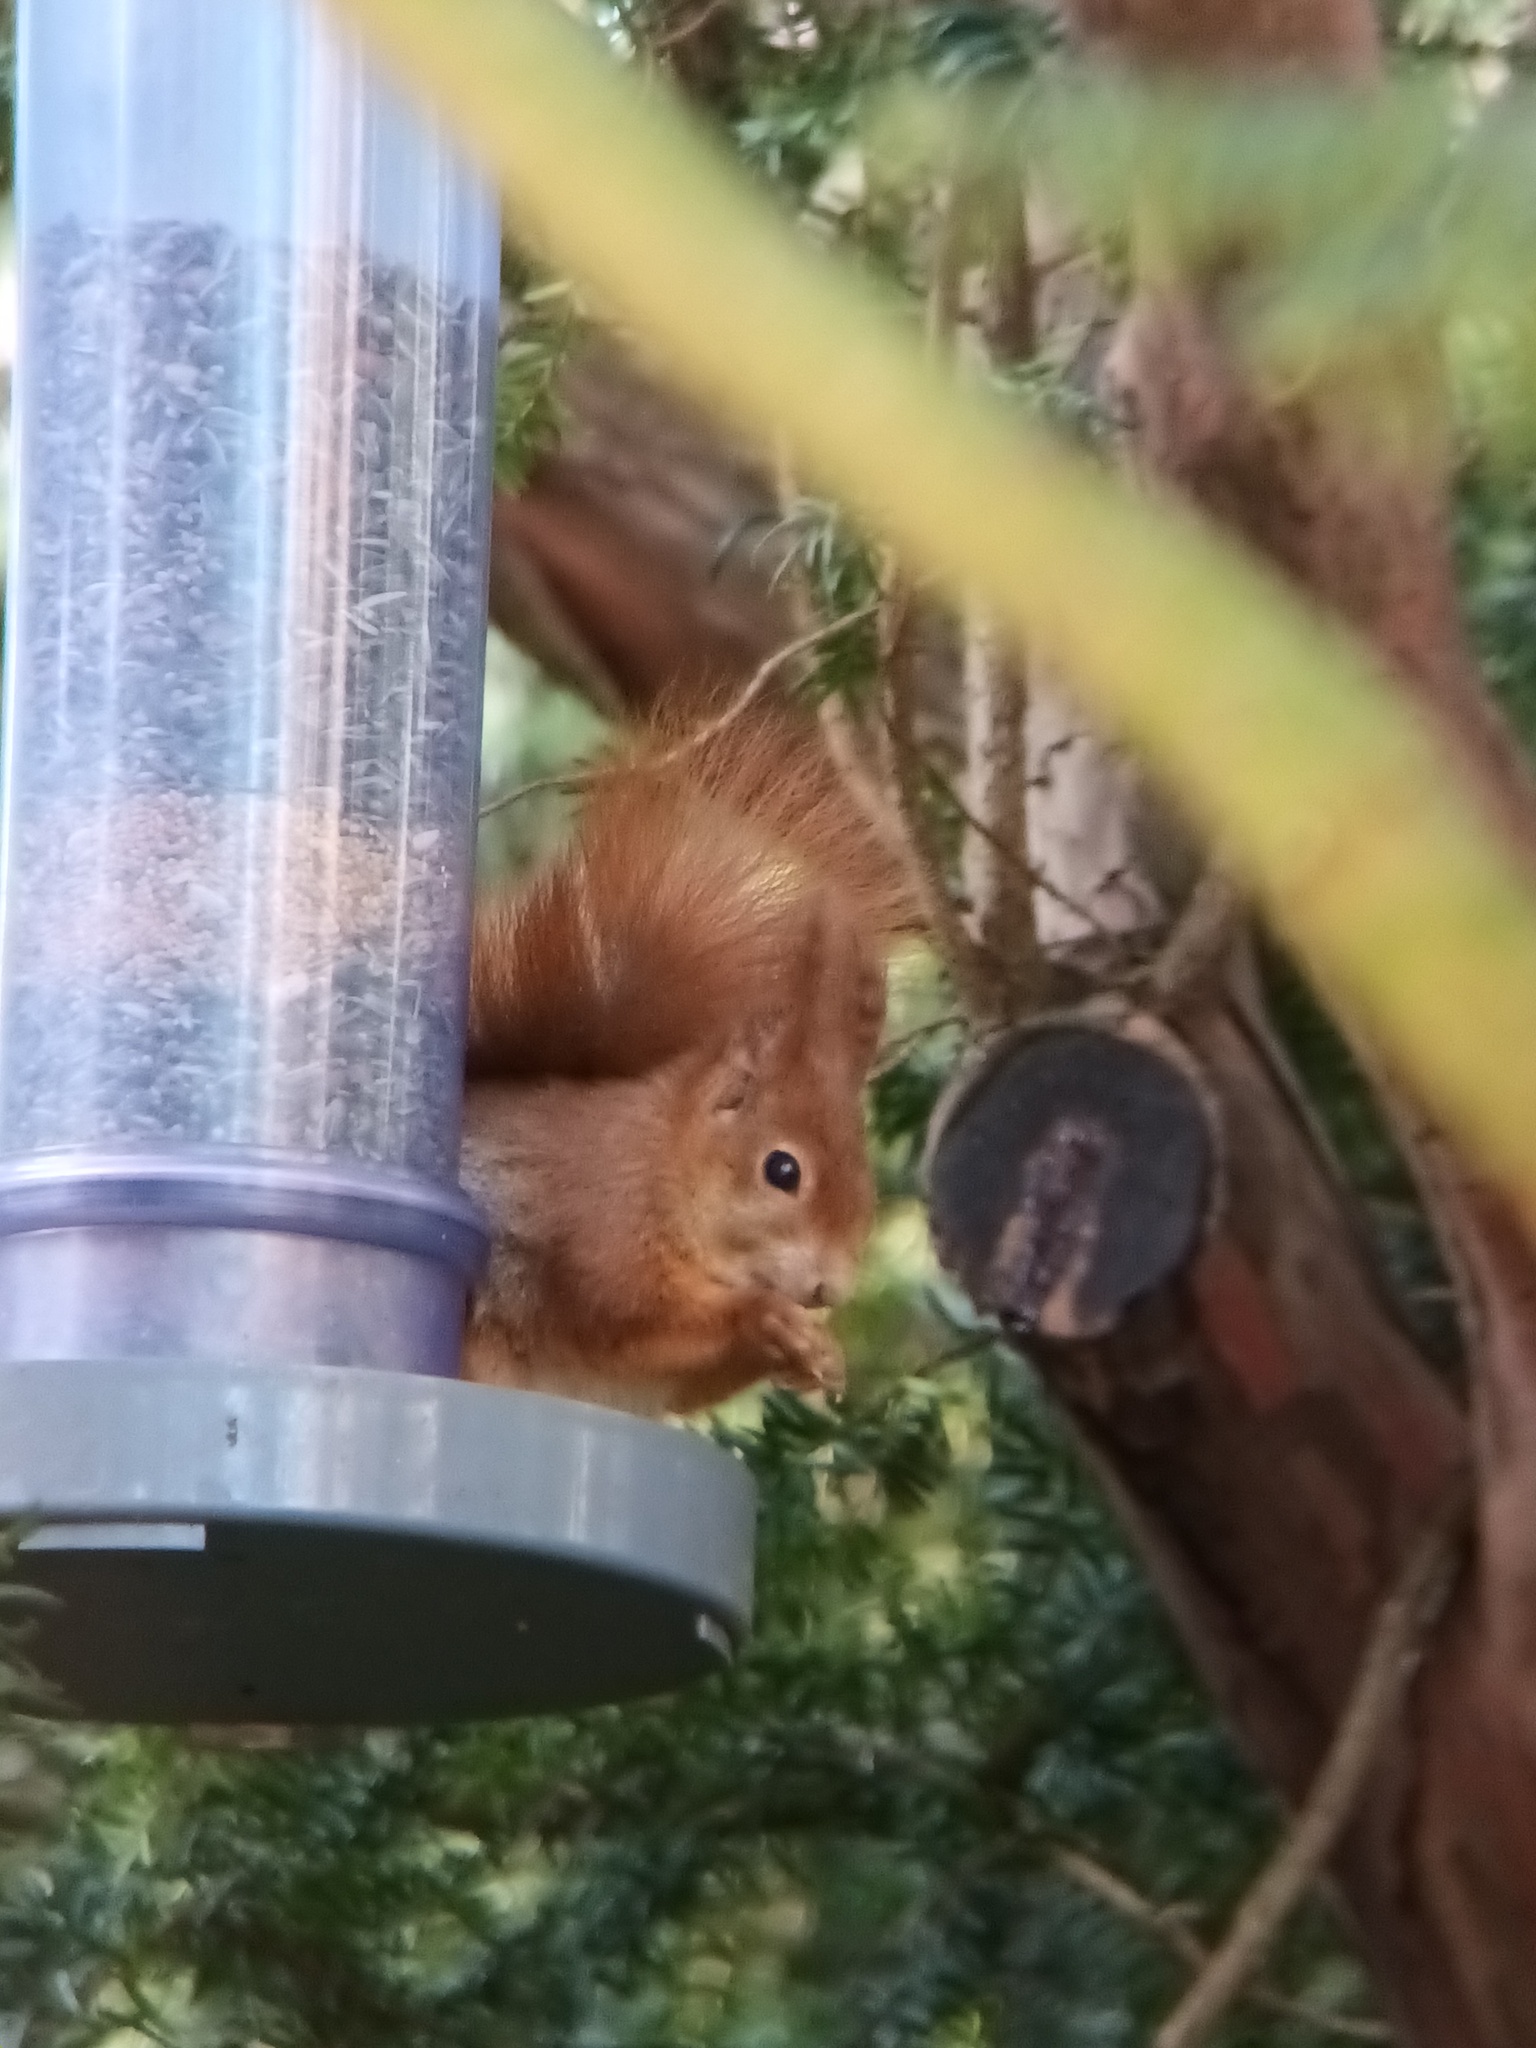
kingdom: Animalia
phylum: Chordata
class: Mammalia
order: Rodentia
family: Sciuridae
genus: Sciurus
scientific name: Sciurus vulgaris
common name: Eurasian red squirrel
